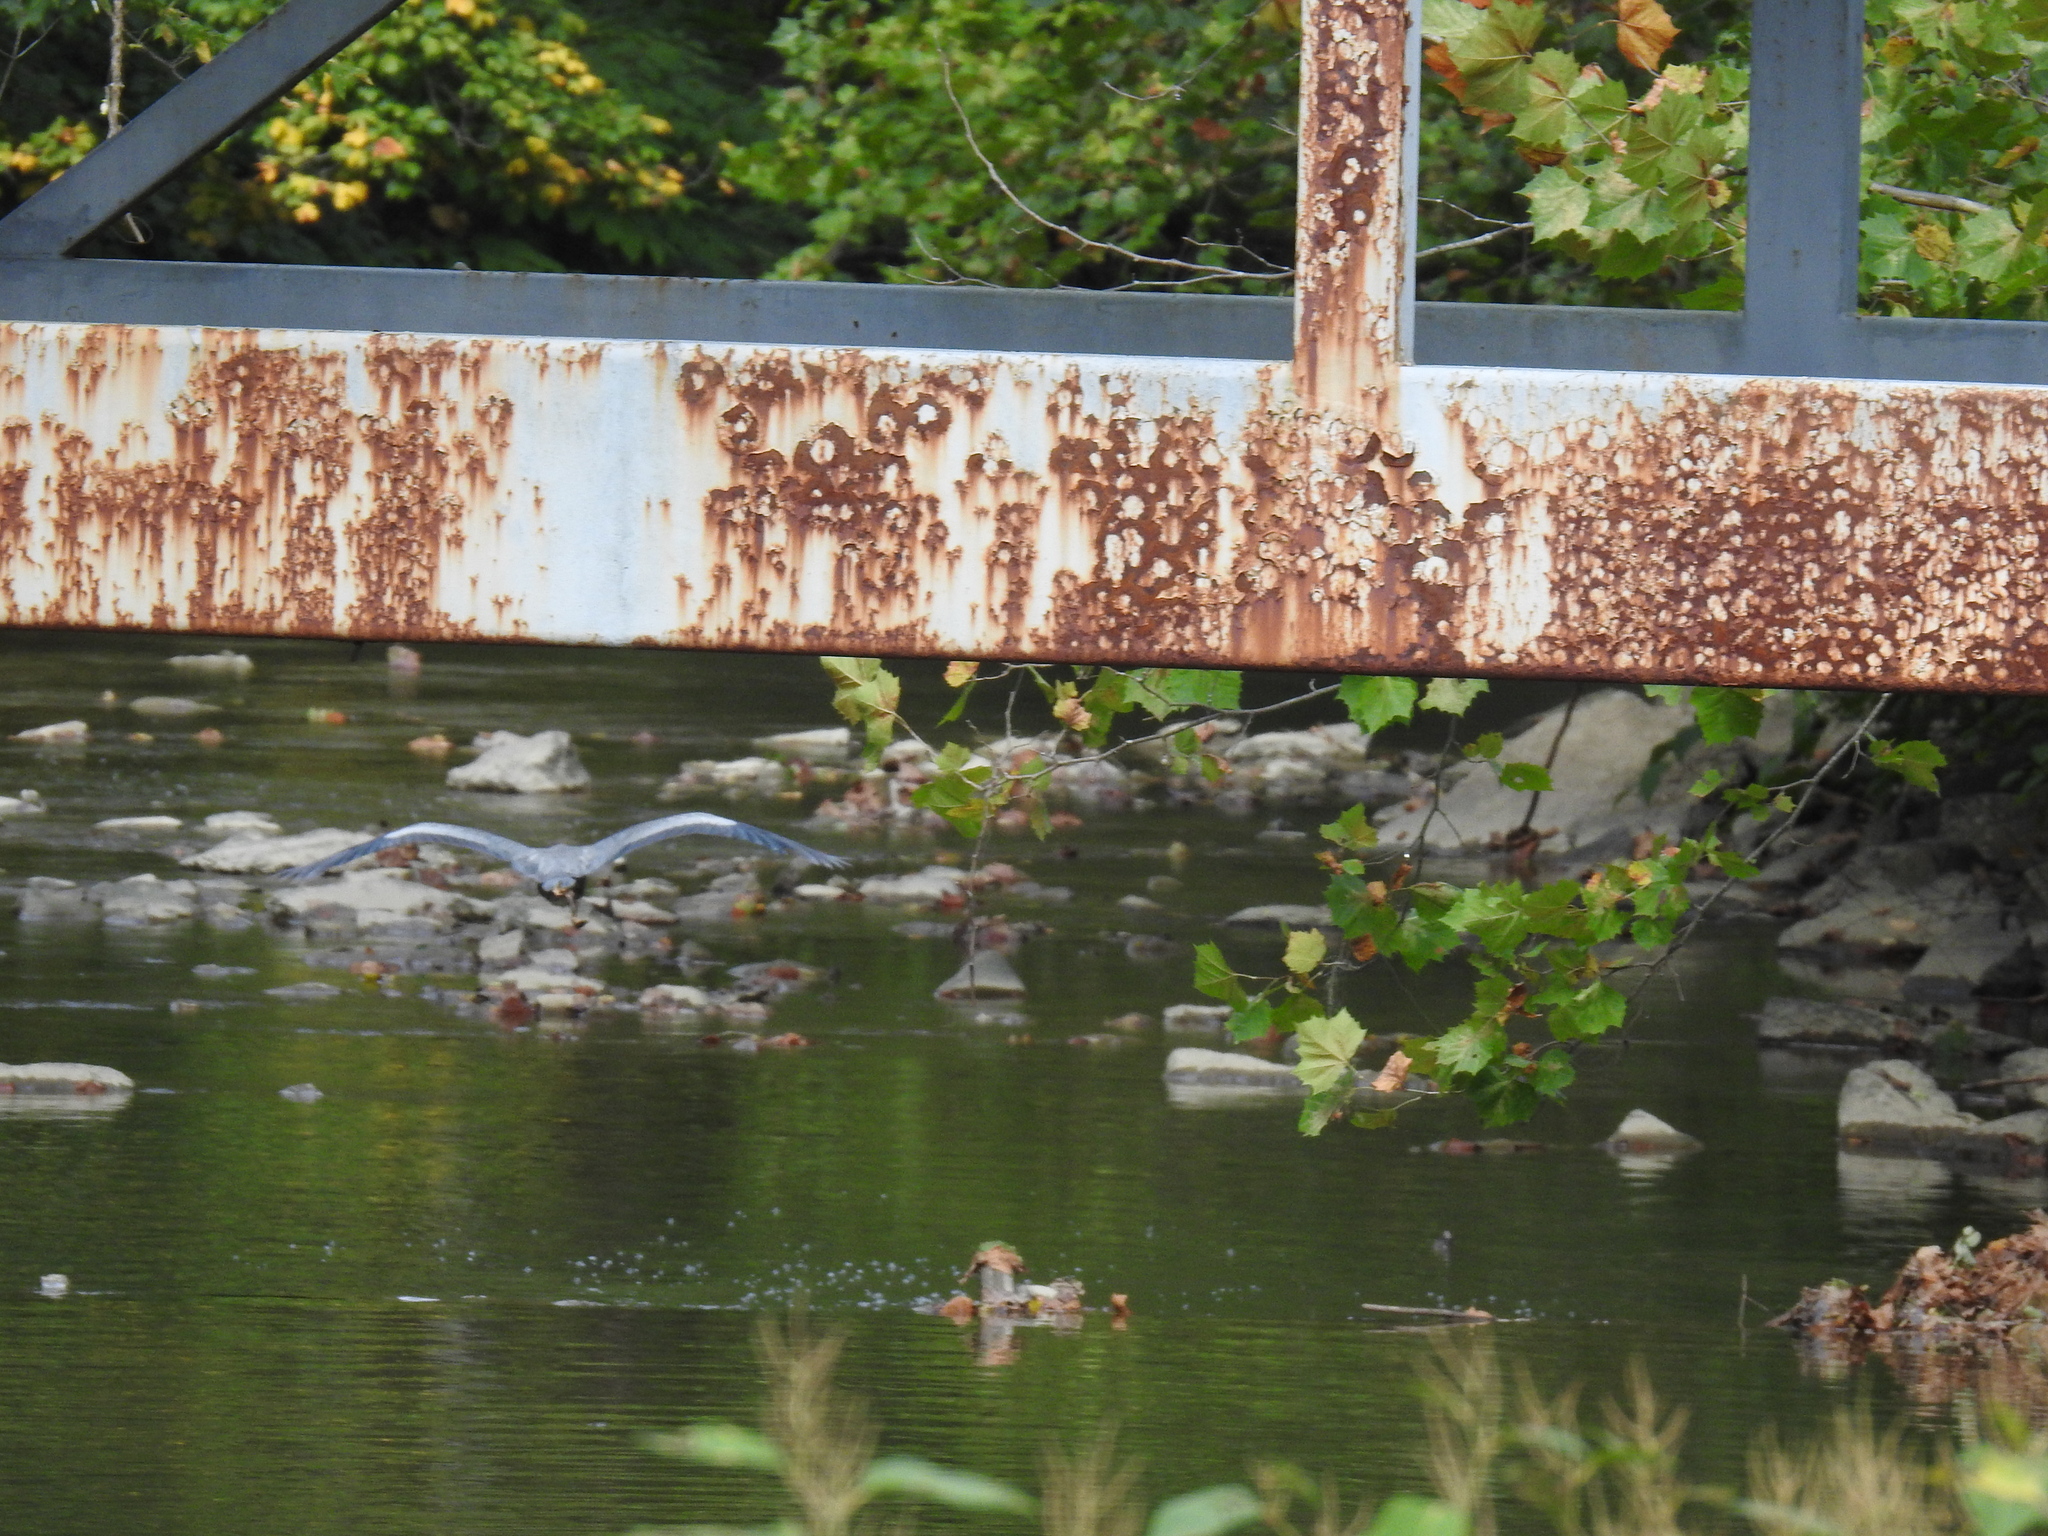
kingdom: Animalia
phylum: Chordata
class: Aves
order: Pelecaniformes
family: Ardeidae
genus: Ardea
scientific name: Ardea herodias
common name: Great blue heron
